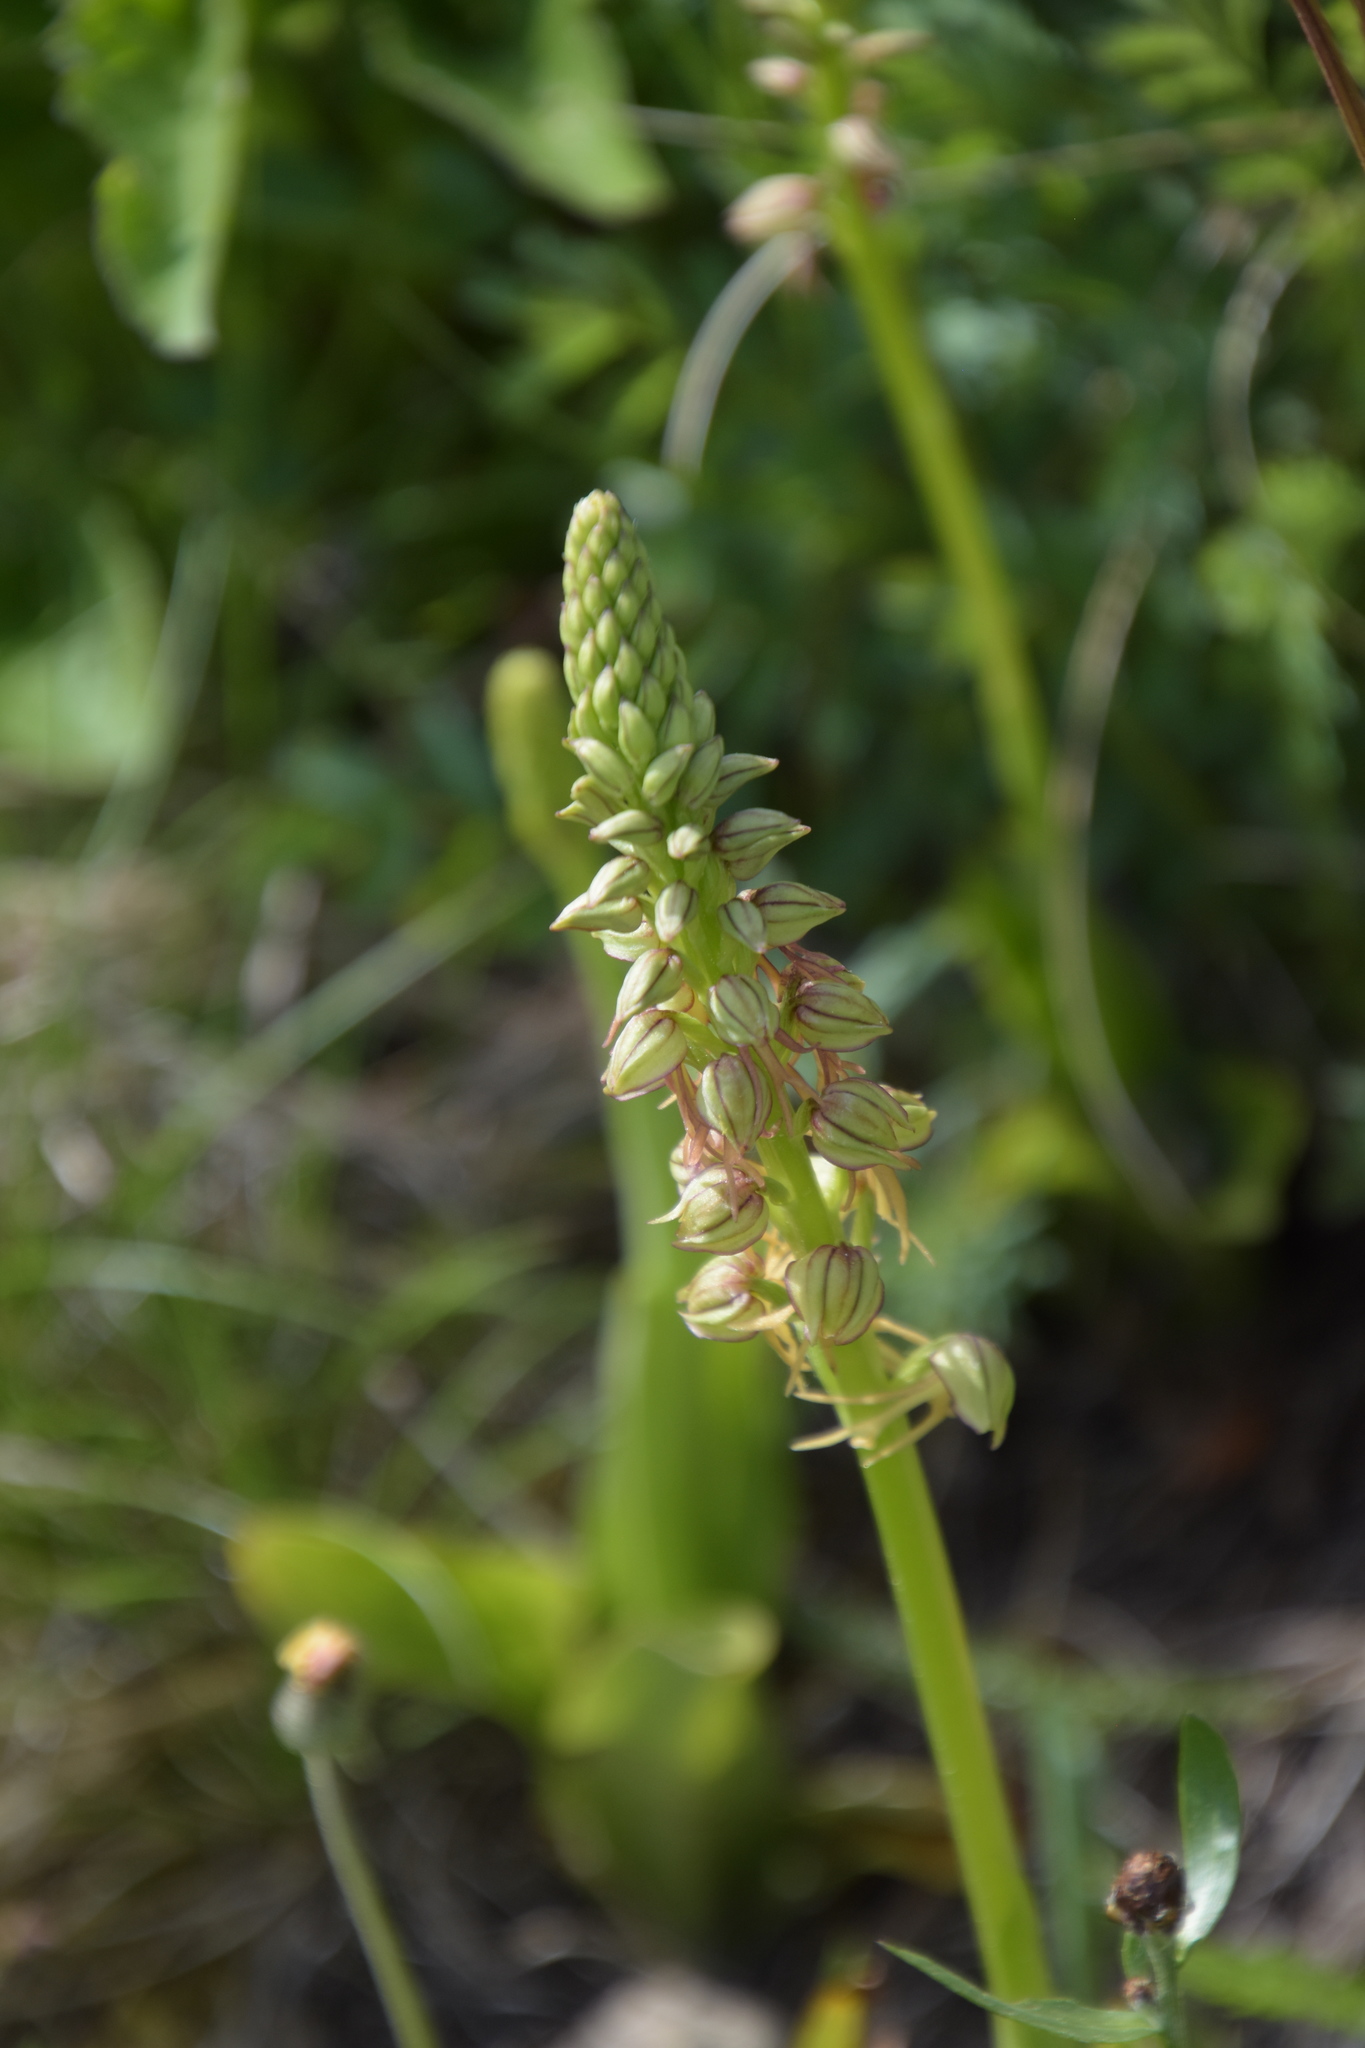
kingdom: Plantae
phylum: Tracheophyta
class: Liliopsida
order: Asparagales
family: Orchidaceae
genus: Orchis
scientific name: Orchis anthropophora
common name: Man orchid
